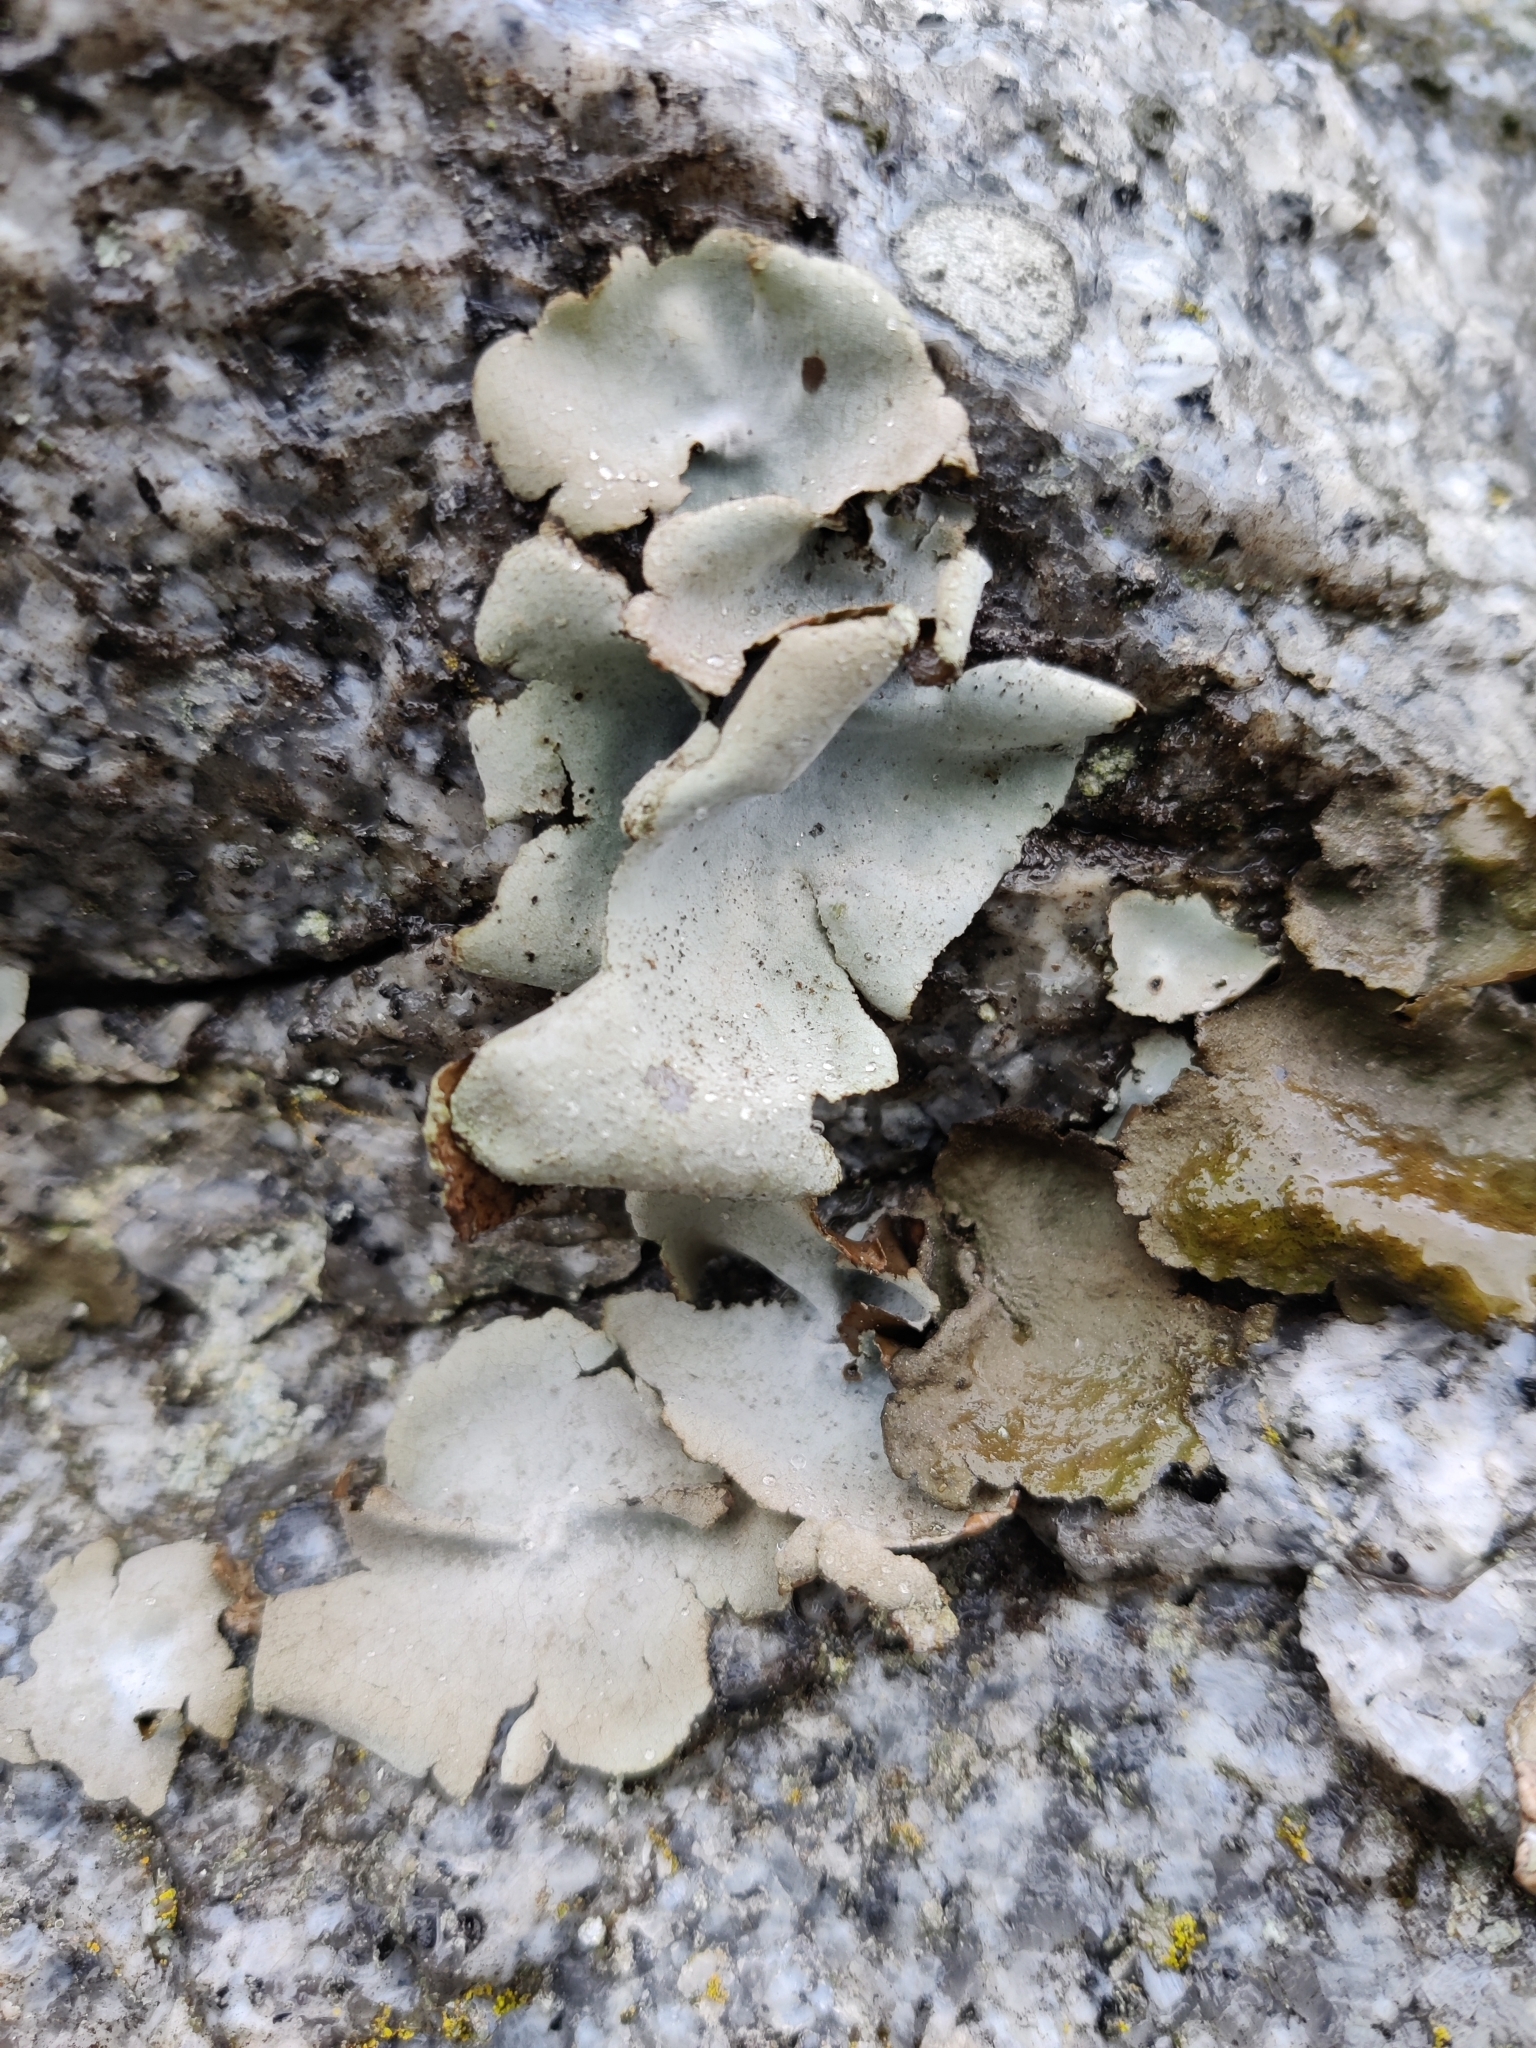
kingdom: Fungi
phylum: Ascomycota
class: Lecanoromycetes
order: Umbilicariales
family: Umbilicariaceae
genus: Umbilicaria
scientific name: Umbilicaria hirsuta
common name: Granulating rocktripe lichen
